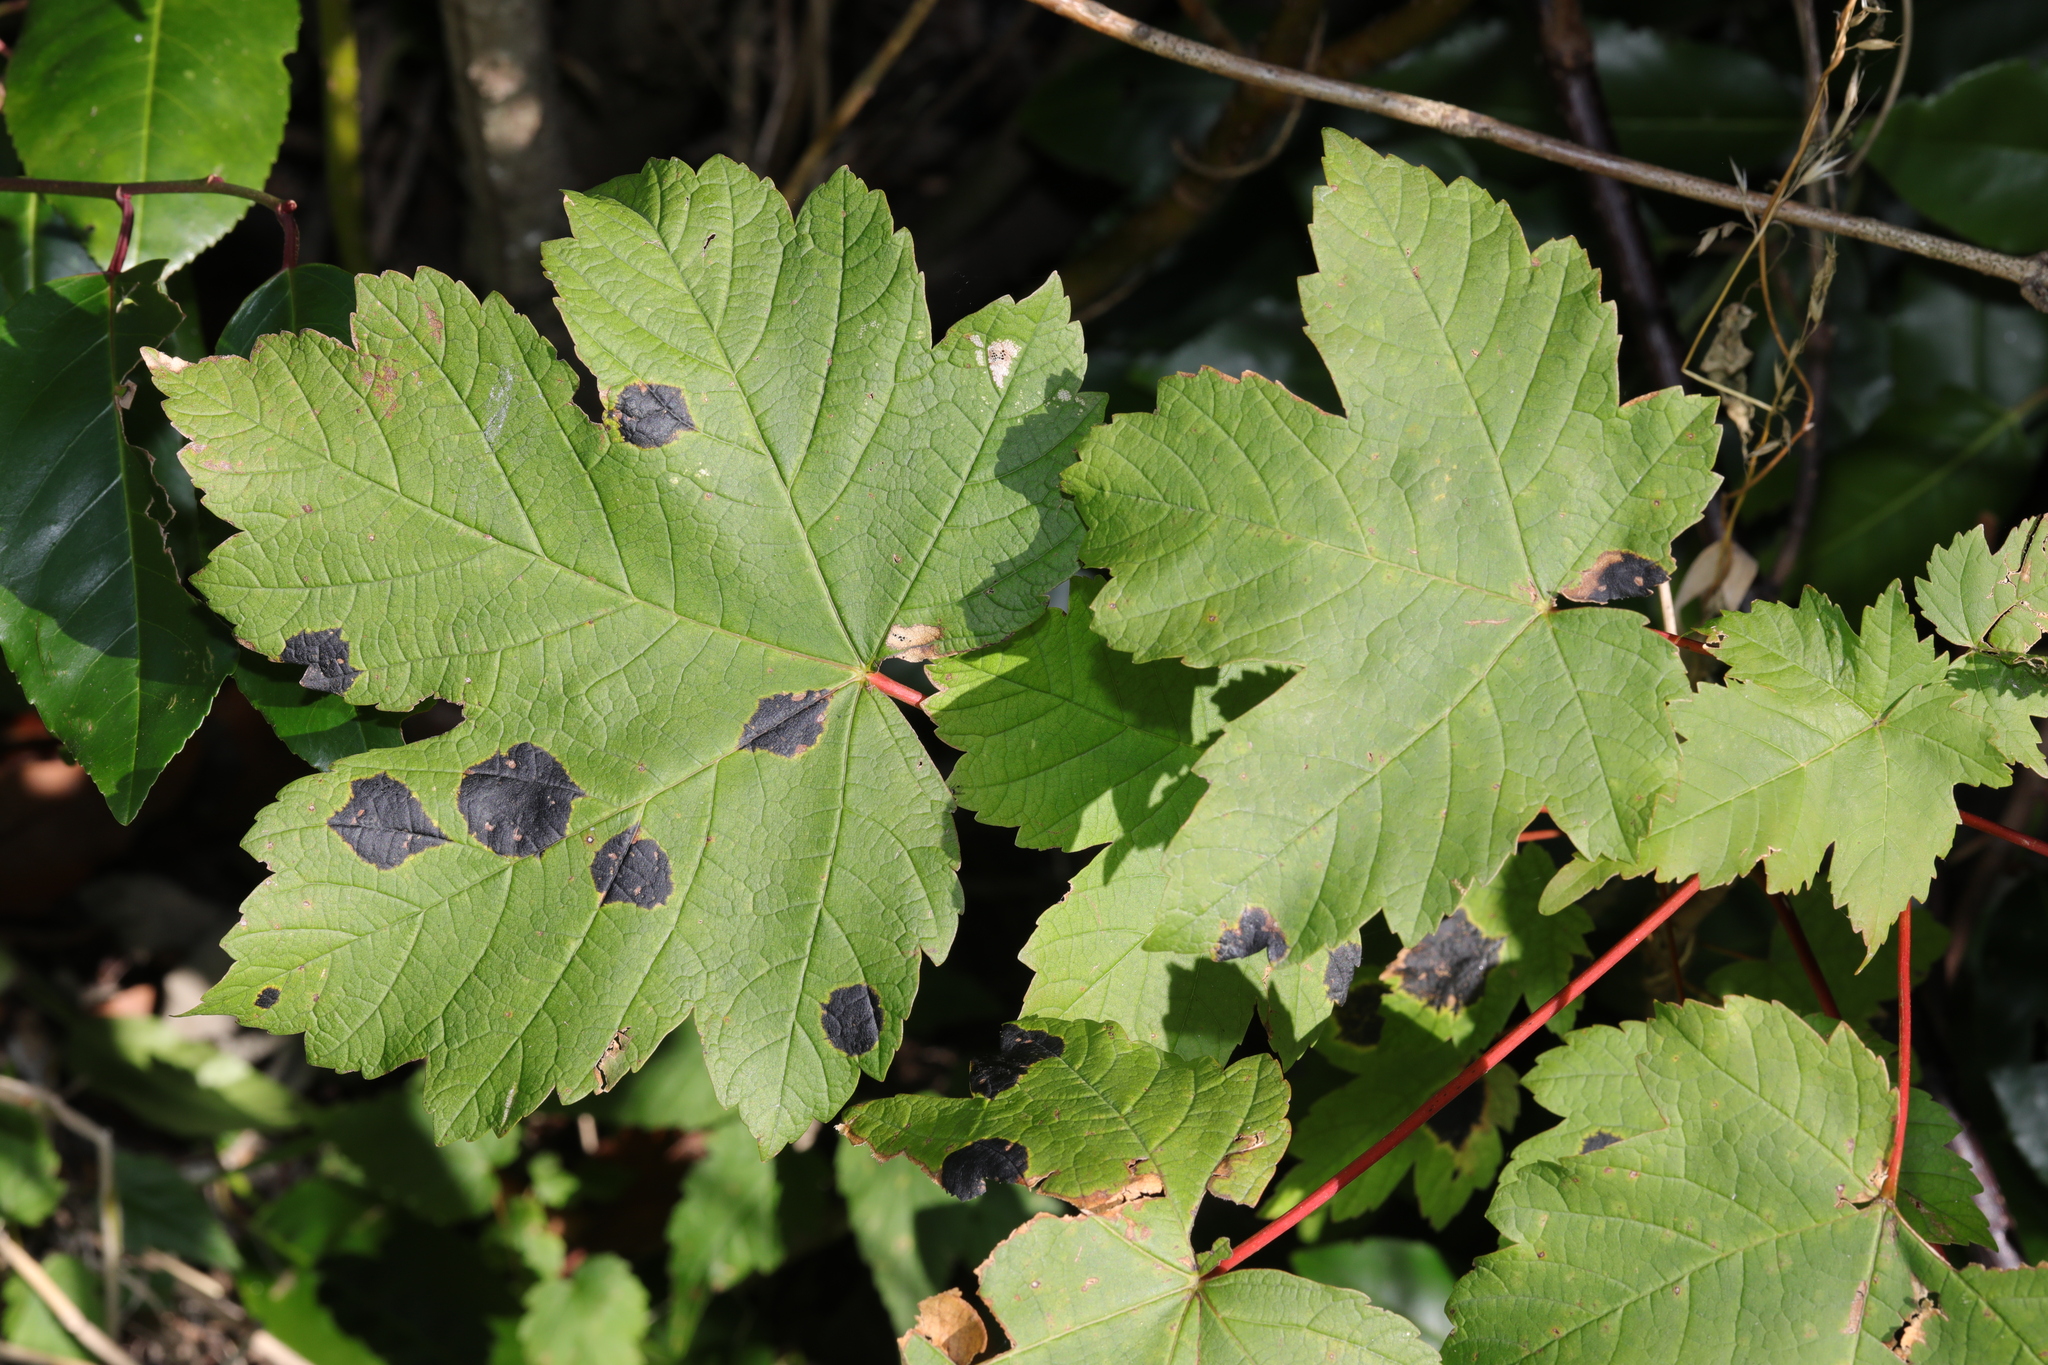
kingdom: Plantae
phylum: Tracheophyta
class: Magnoliopsida
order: Sapindales
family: Sapindaceae
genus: Acer
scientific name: Acer pseudoplatanus
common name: Sycamore
